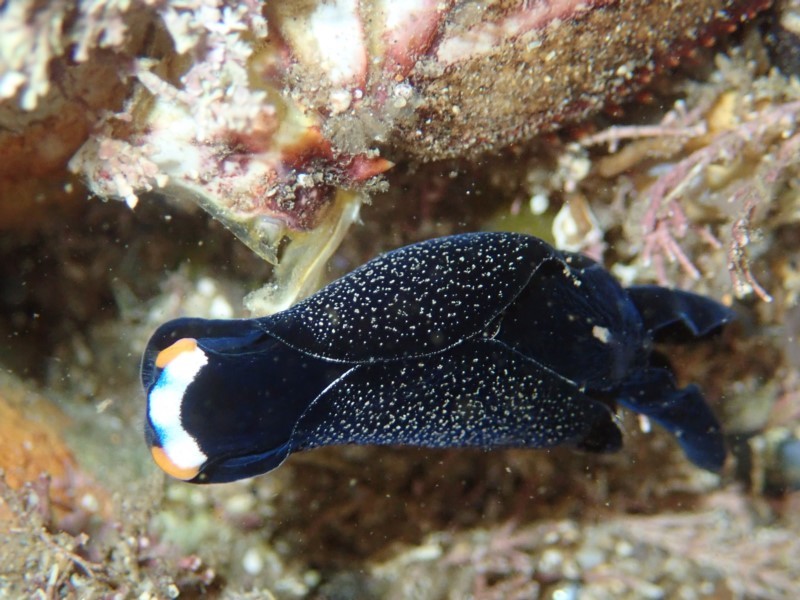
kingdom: Animalia
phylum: Mollusca
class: Gastropoda
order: Cephalaspidea
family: Aglajidae
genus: Mariaglaja
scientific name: Mariaglaja inornata
